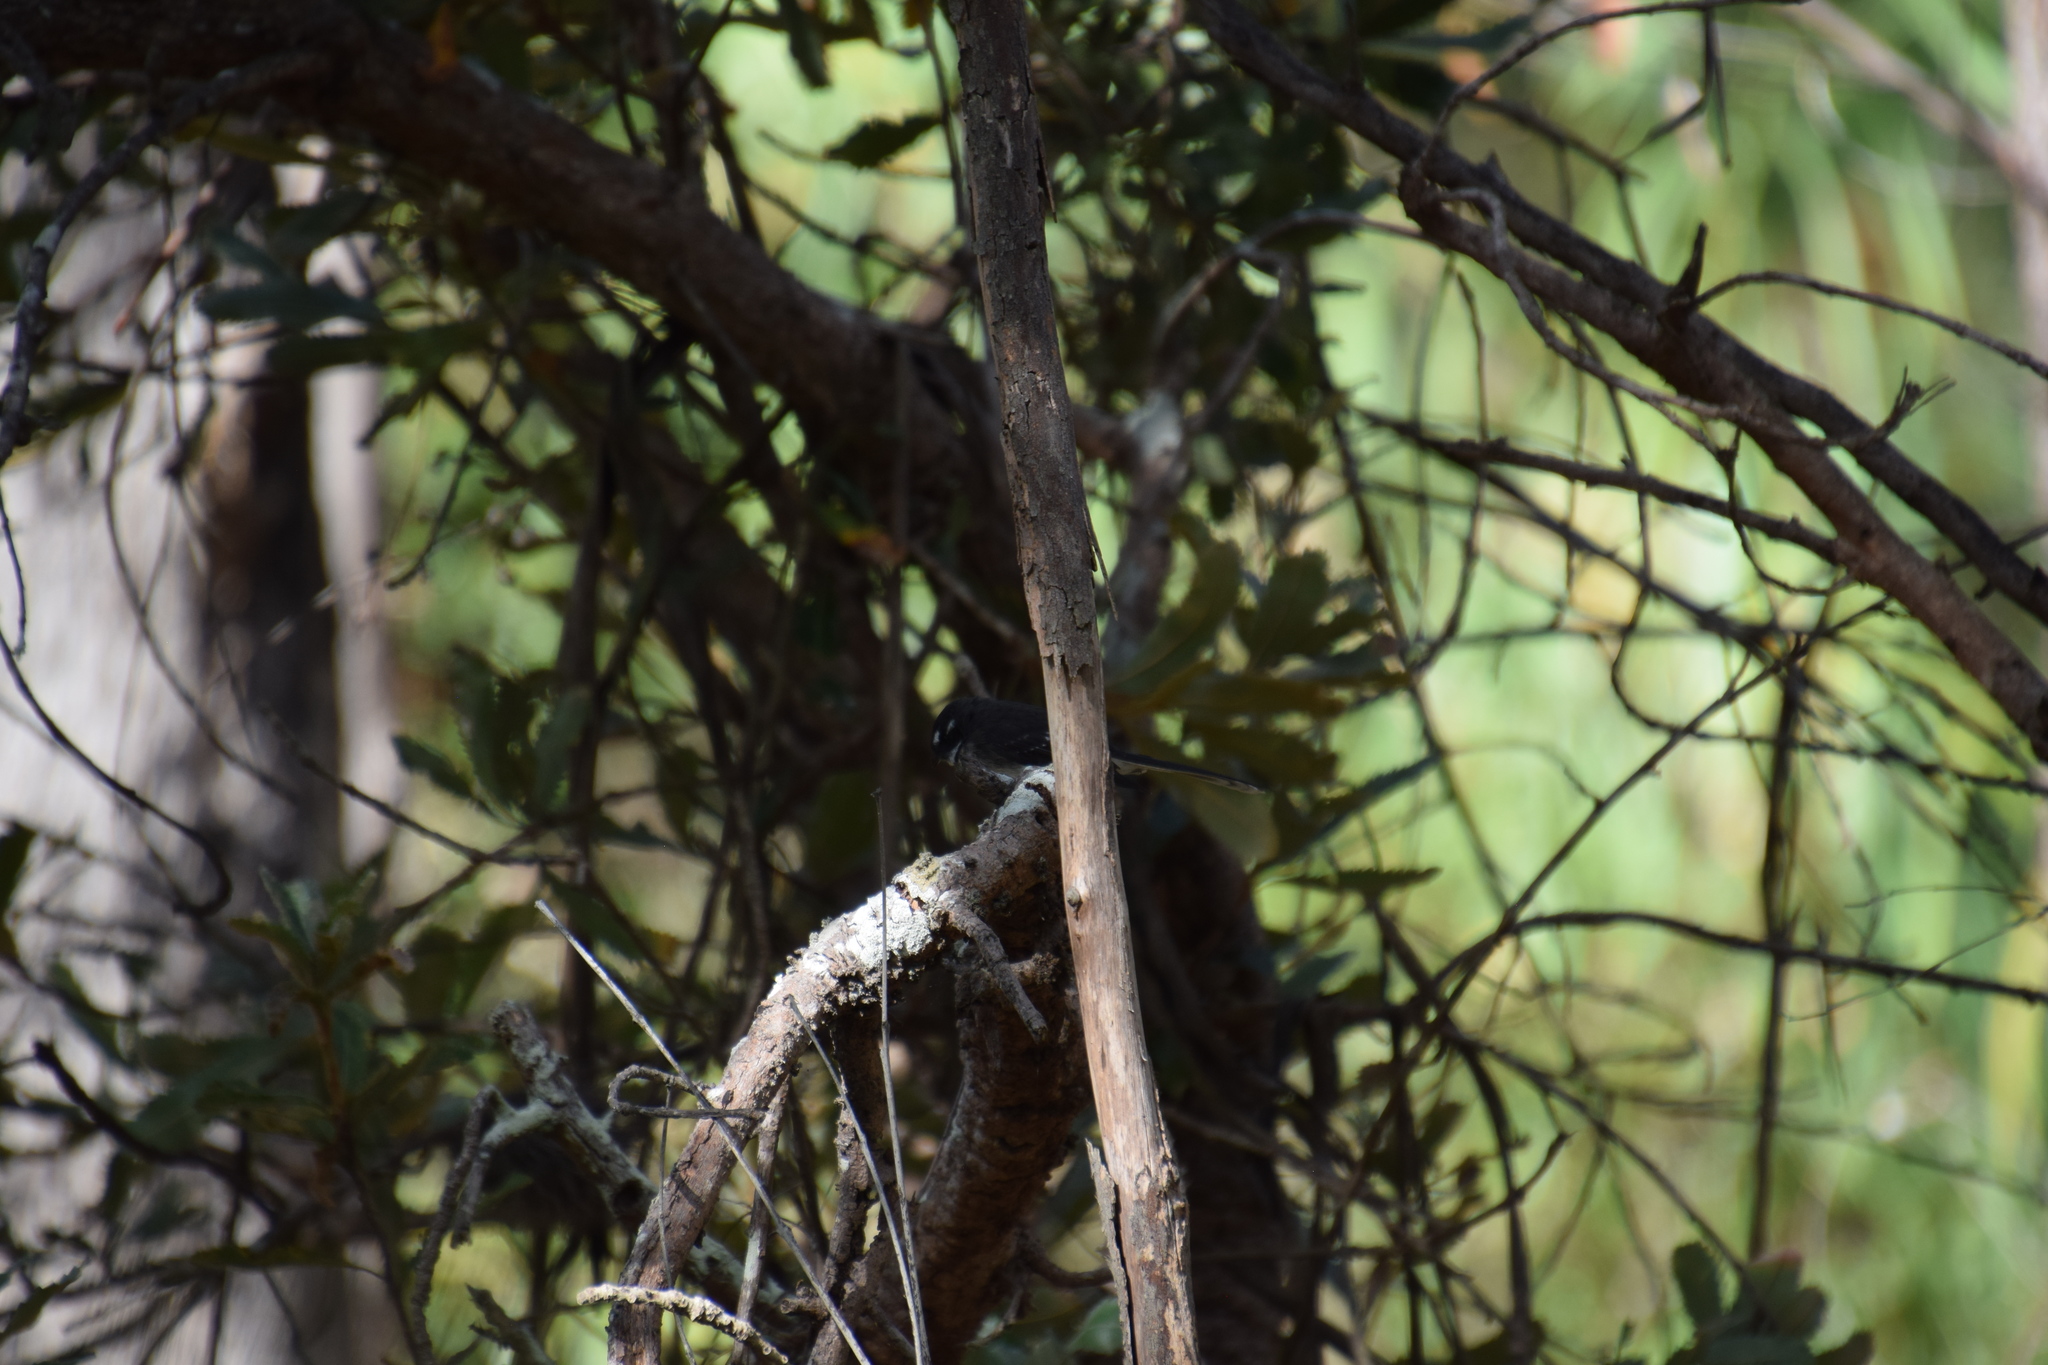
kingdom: Animalia
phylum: Chordata
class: Aves
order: Passeriformes
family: Rhipiduridae
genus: Rhipidura
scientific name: Rhipidura albiscapa
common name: Grey fantail
